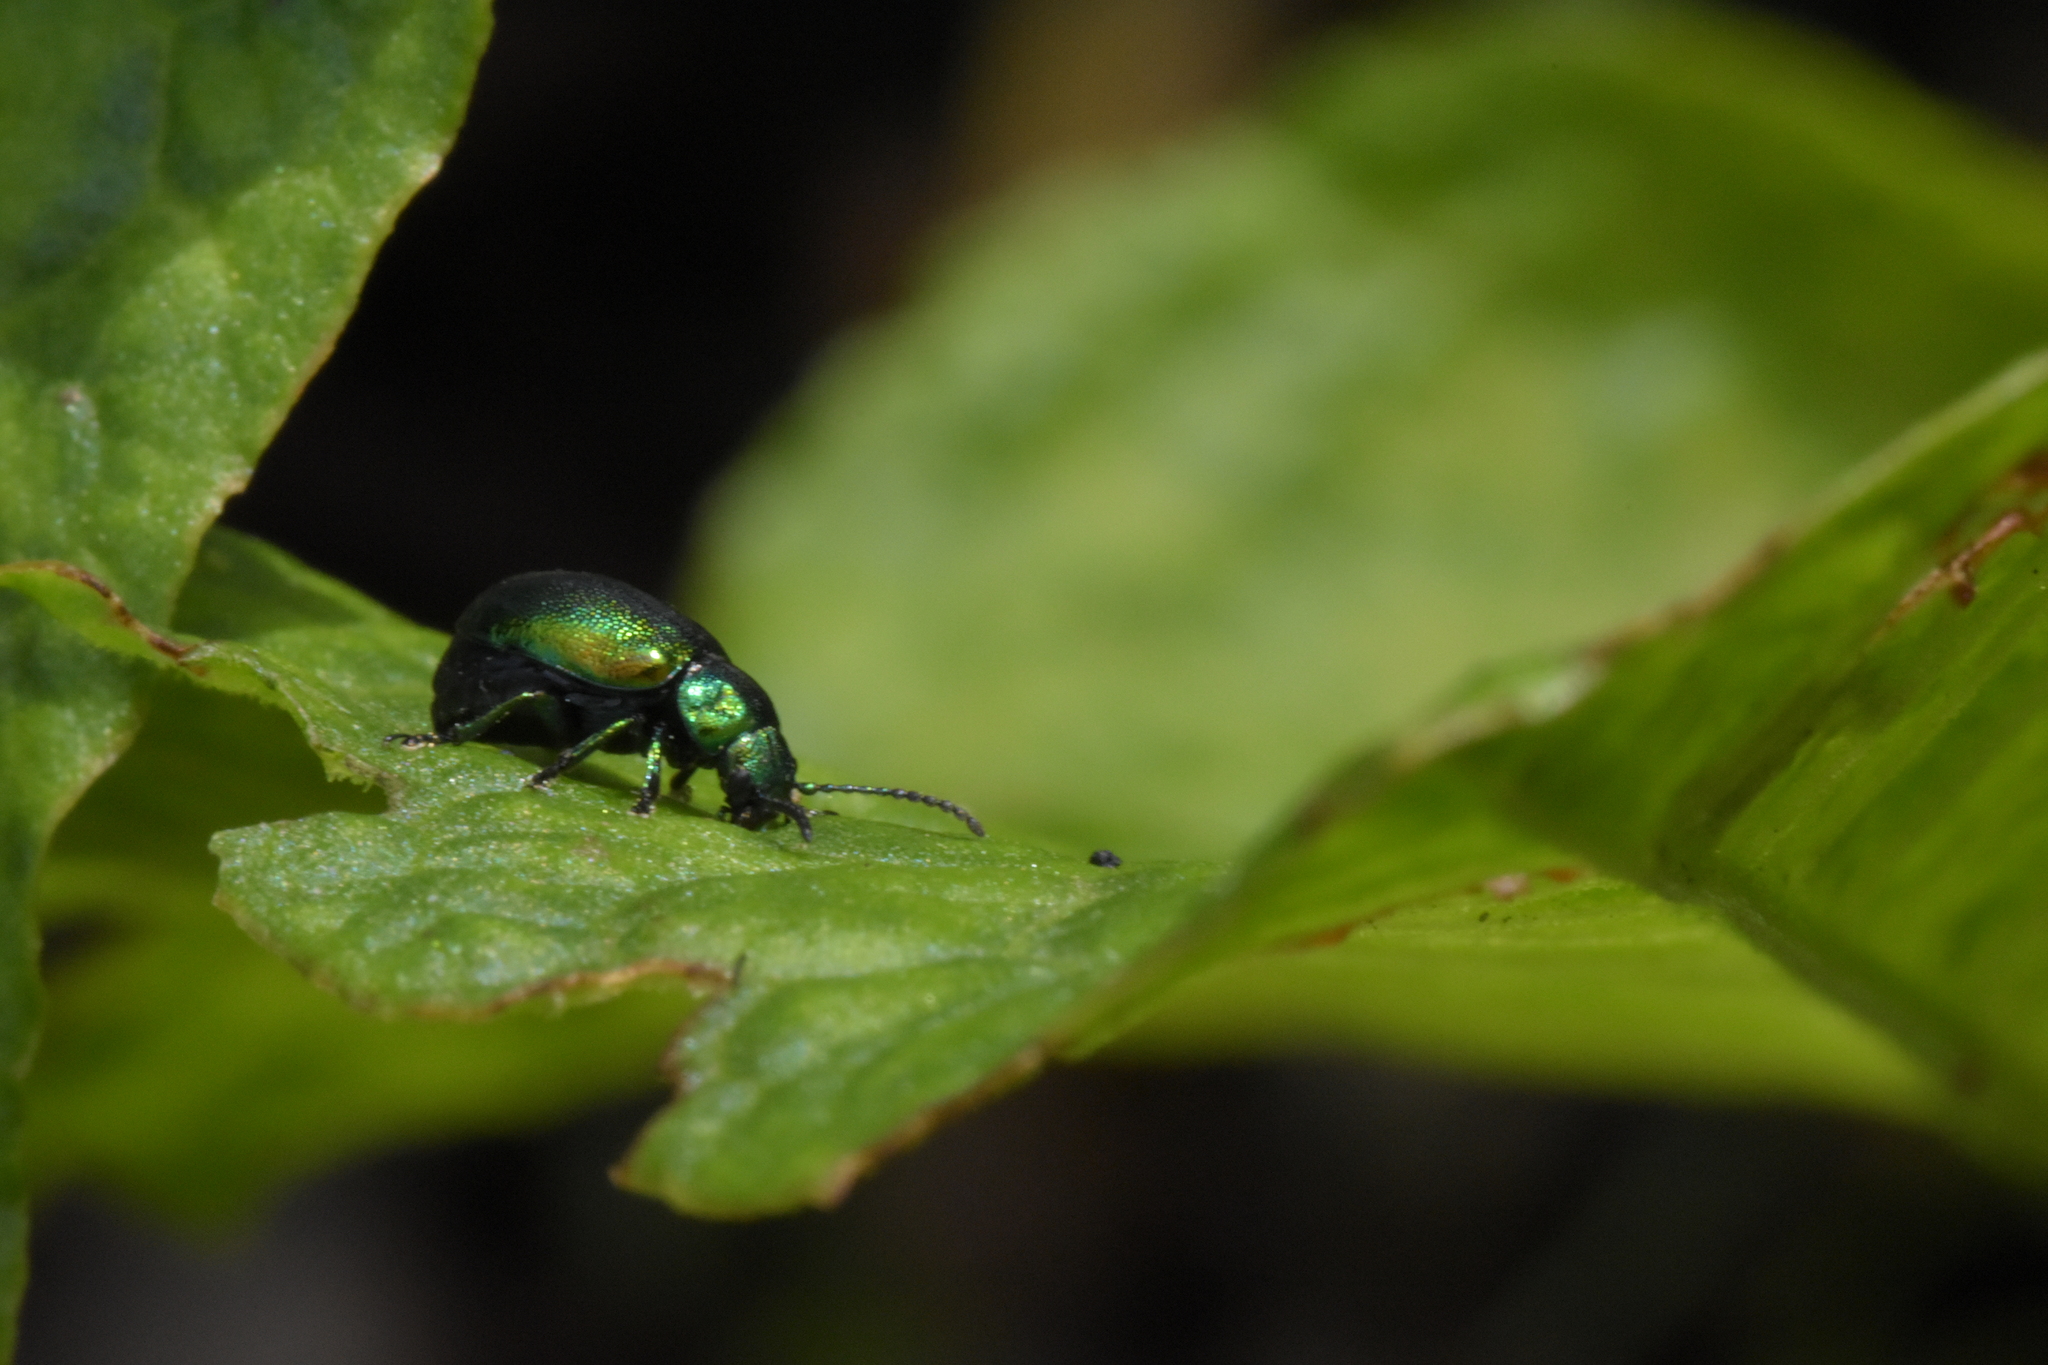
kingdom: Animalia
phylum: Arthropoda
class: Insecta
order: Coleoptera
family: Chrysomelidae
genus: Gastrophysa
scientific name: Gastrophysa viridula
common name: Green dock beetle
